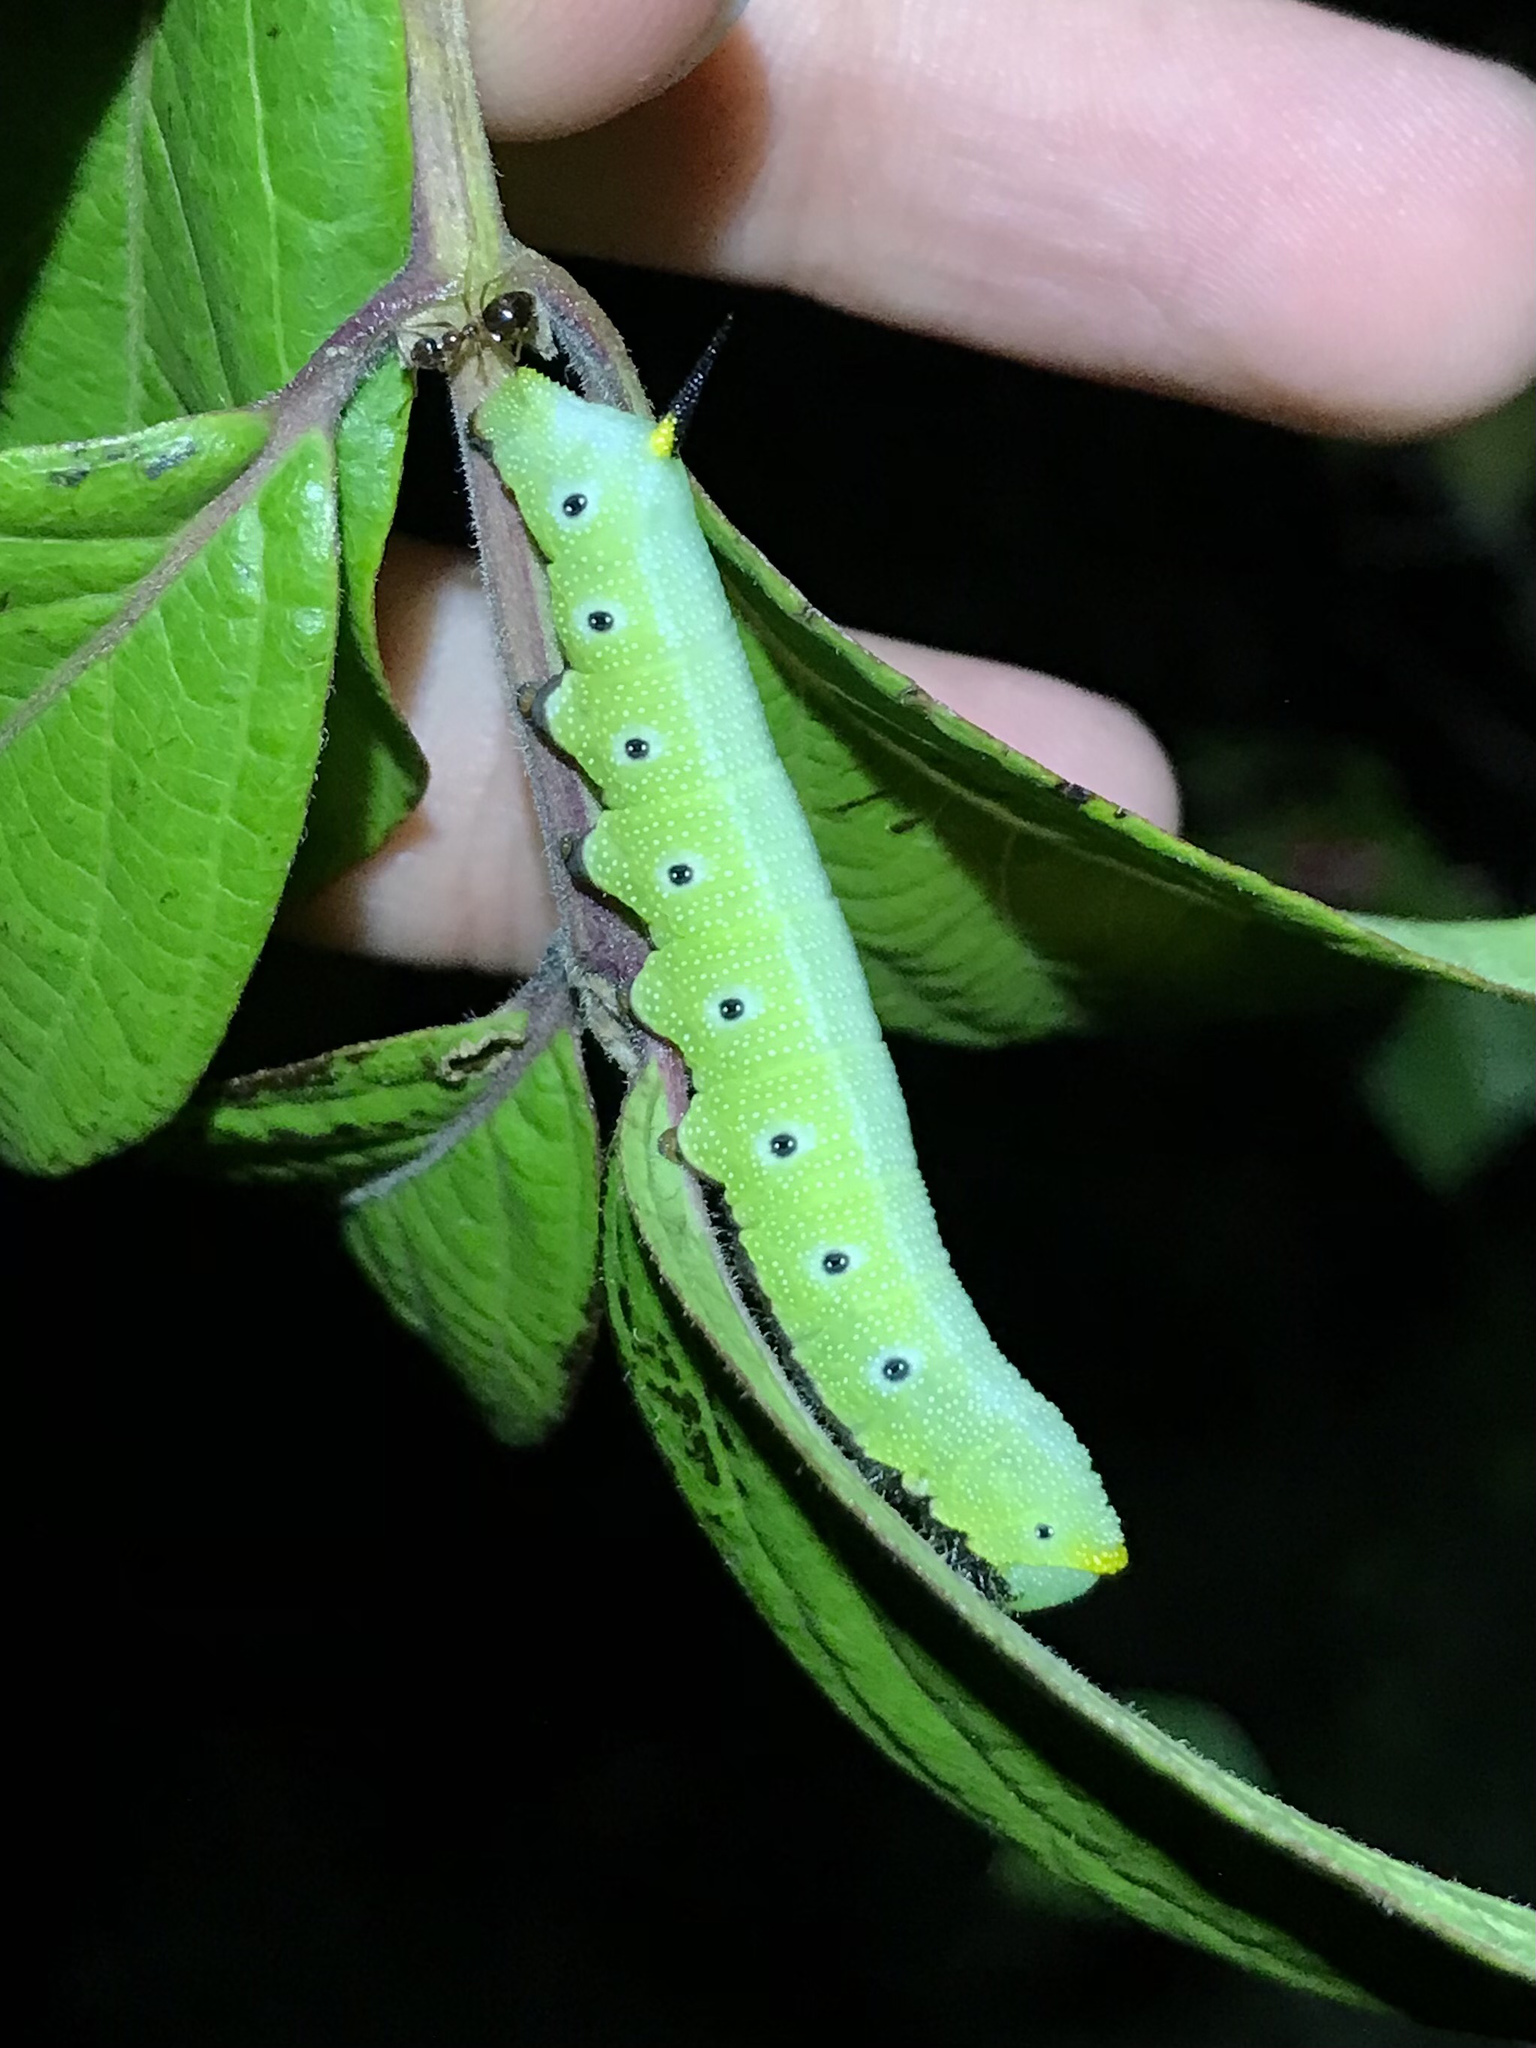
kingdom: Animalia
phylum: Arthropoda
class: Insecta
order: Lepidoptera
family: Sphingidae
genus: Hemaris
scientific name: Hemaris diffinis
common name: Bumblebee moth
